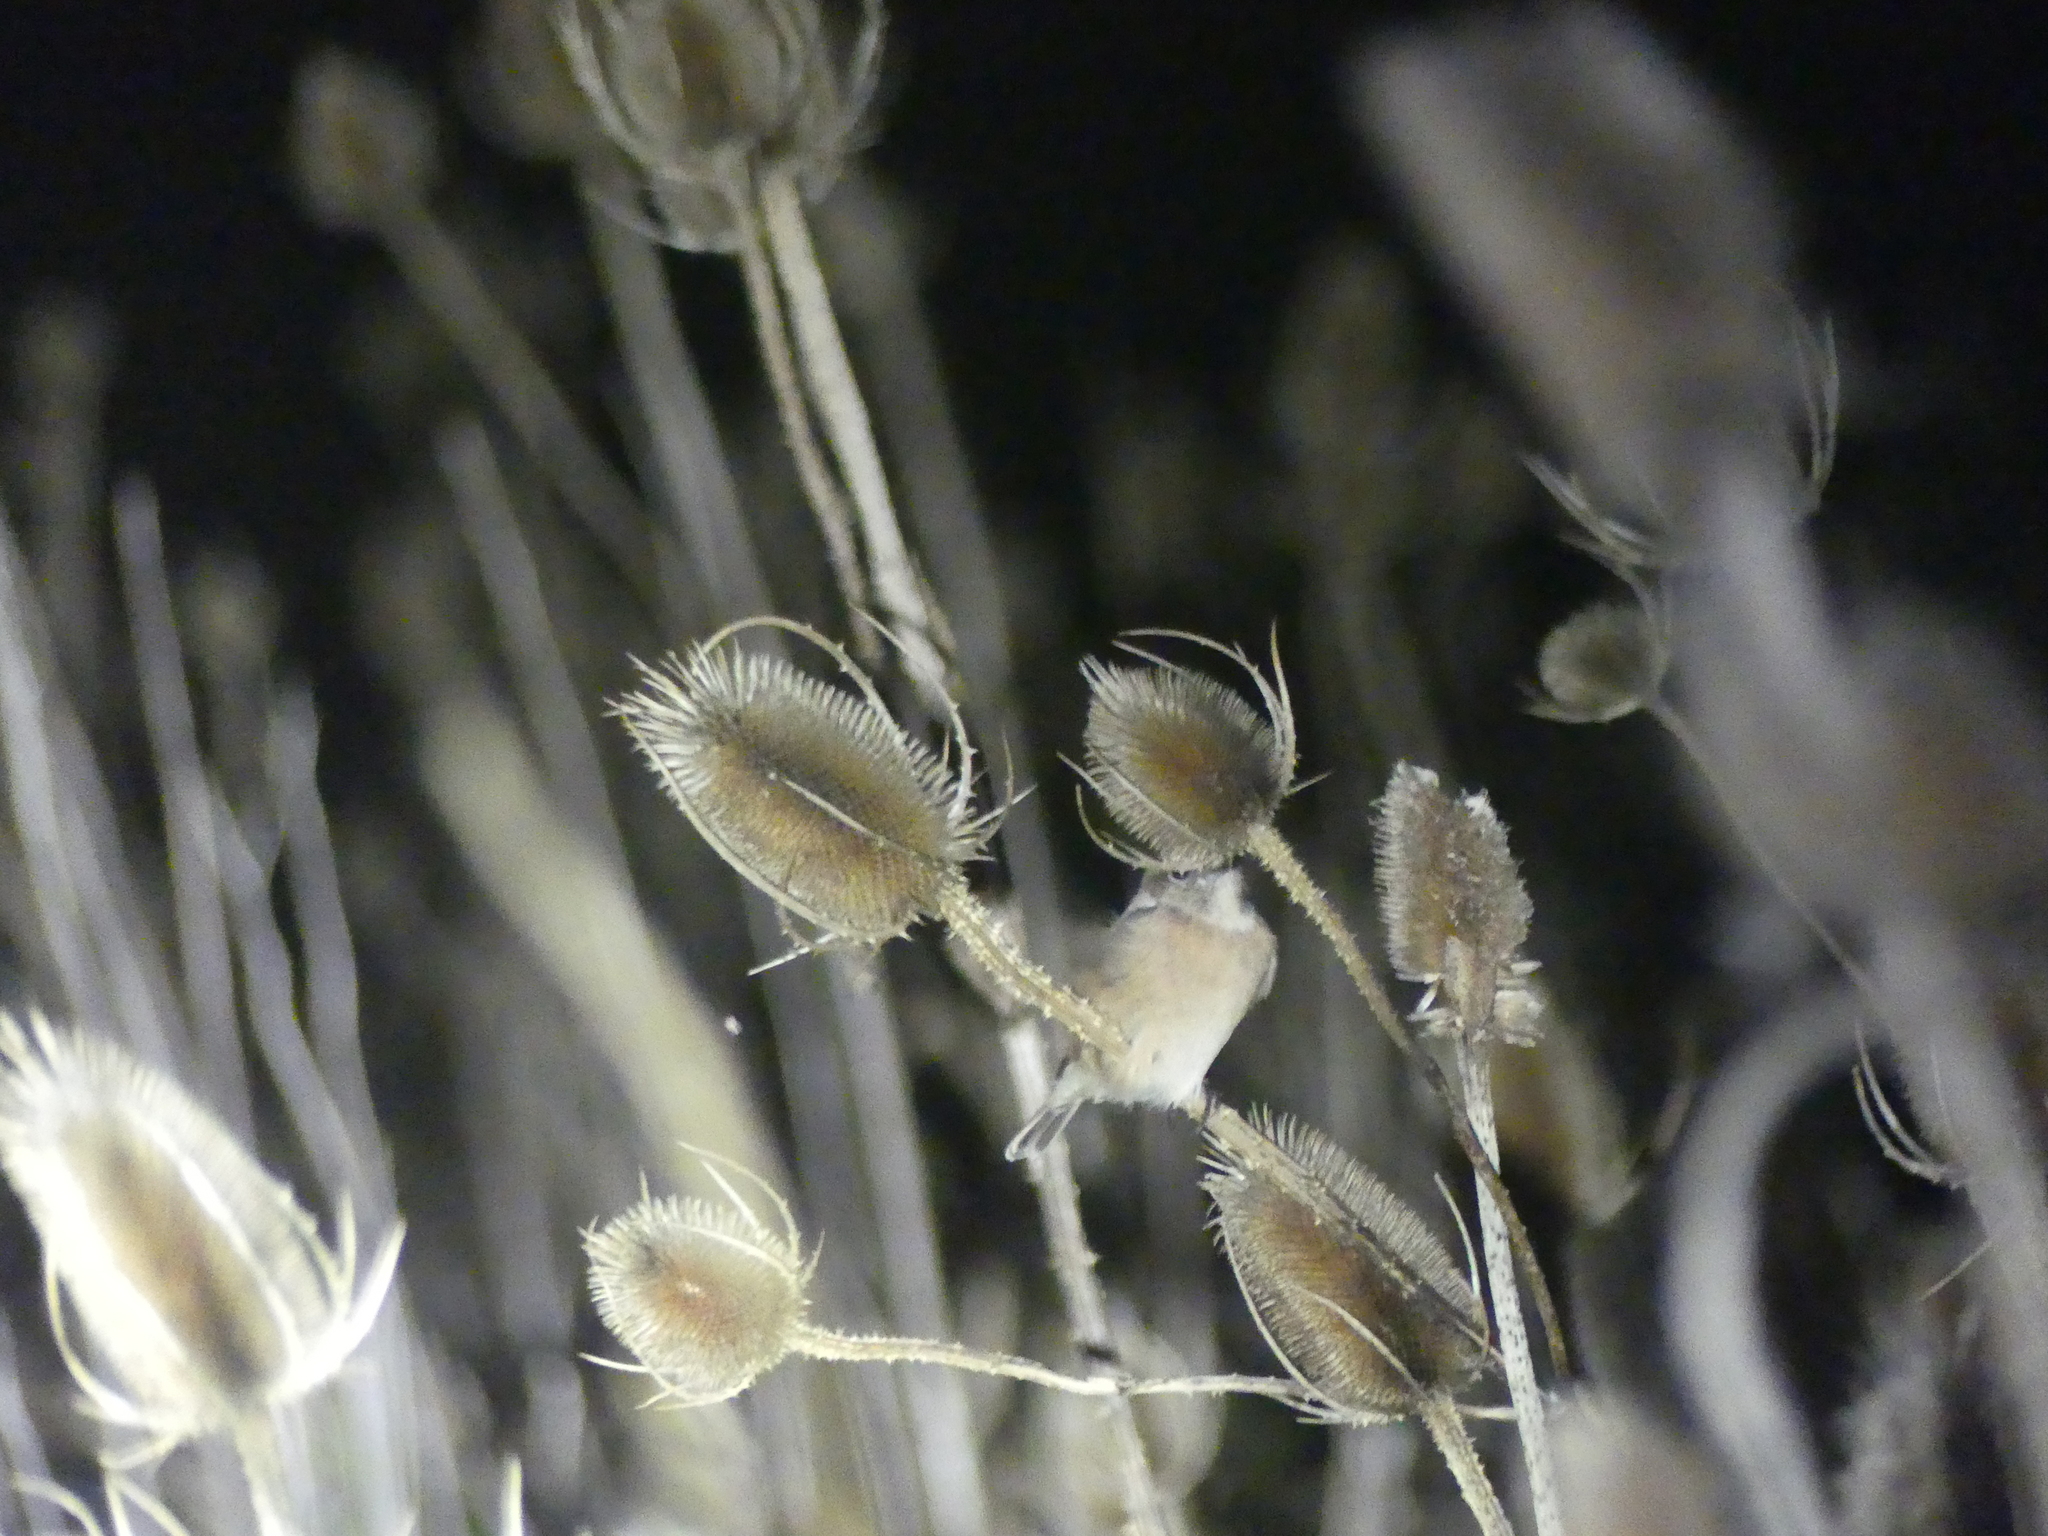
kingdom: Animalia
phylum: Chordata
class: Aves
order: Passeriformes
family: Muscicapidae
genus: Saxicola
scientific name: Saxicola rubicola
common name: European stonechat
